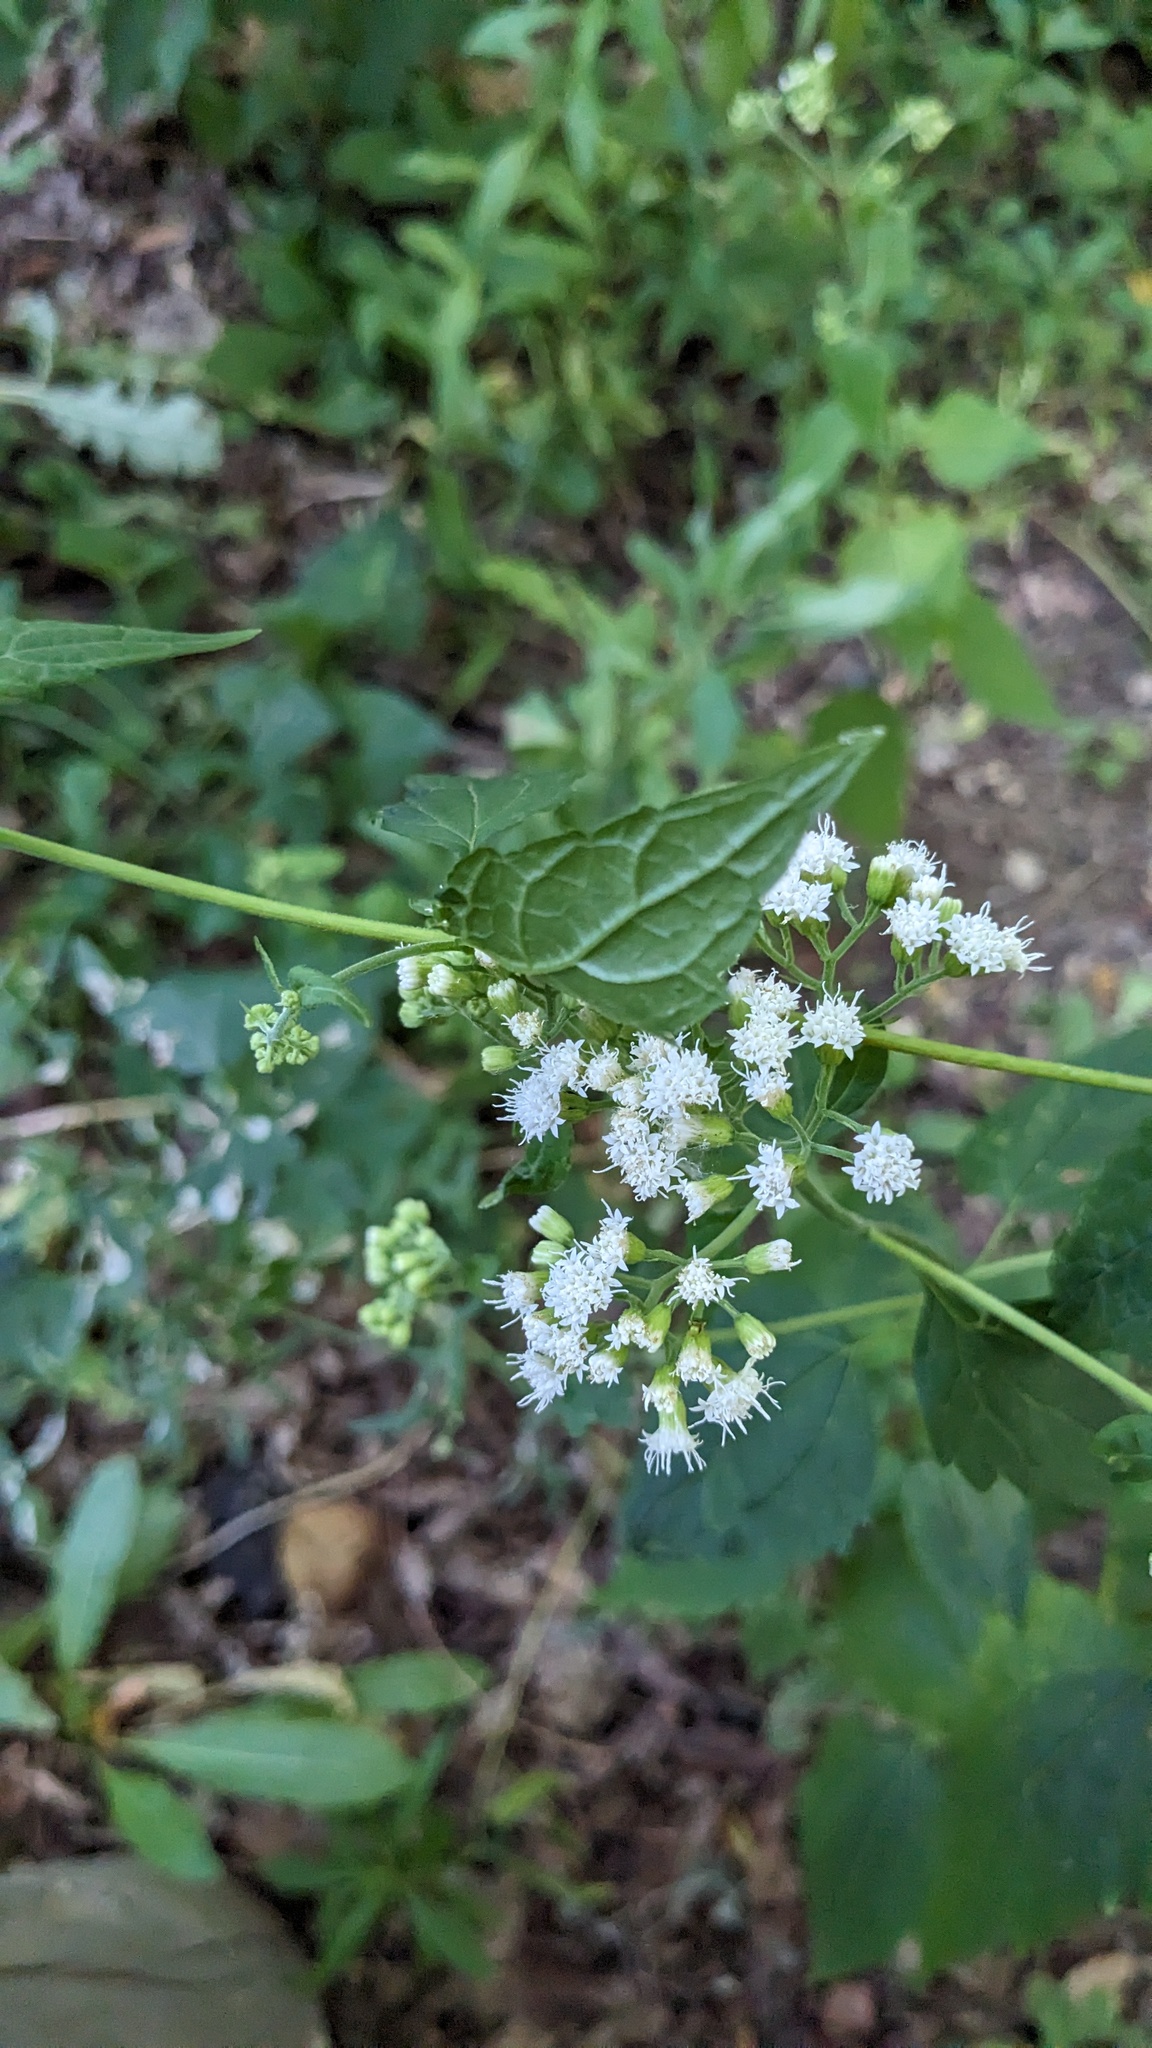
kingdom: Plantae
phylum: Tracheophyta
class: Magnoliopsida
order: Asterales
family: Asteraceae
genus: Ageratina
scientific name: Ageratina altissima
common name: White snakeroot
